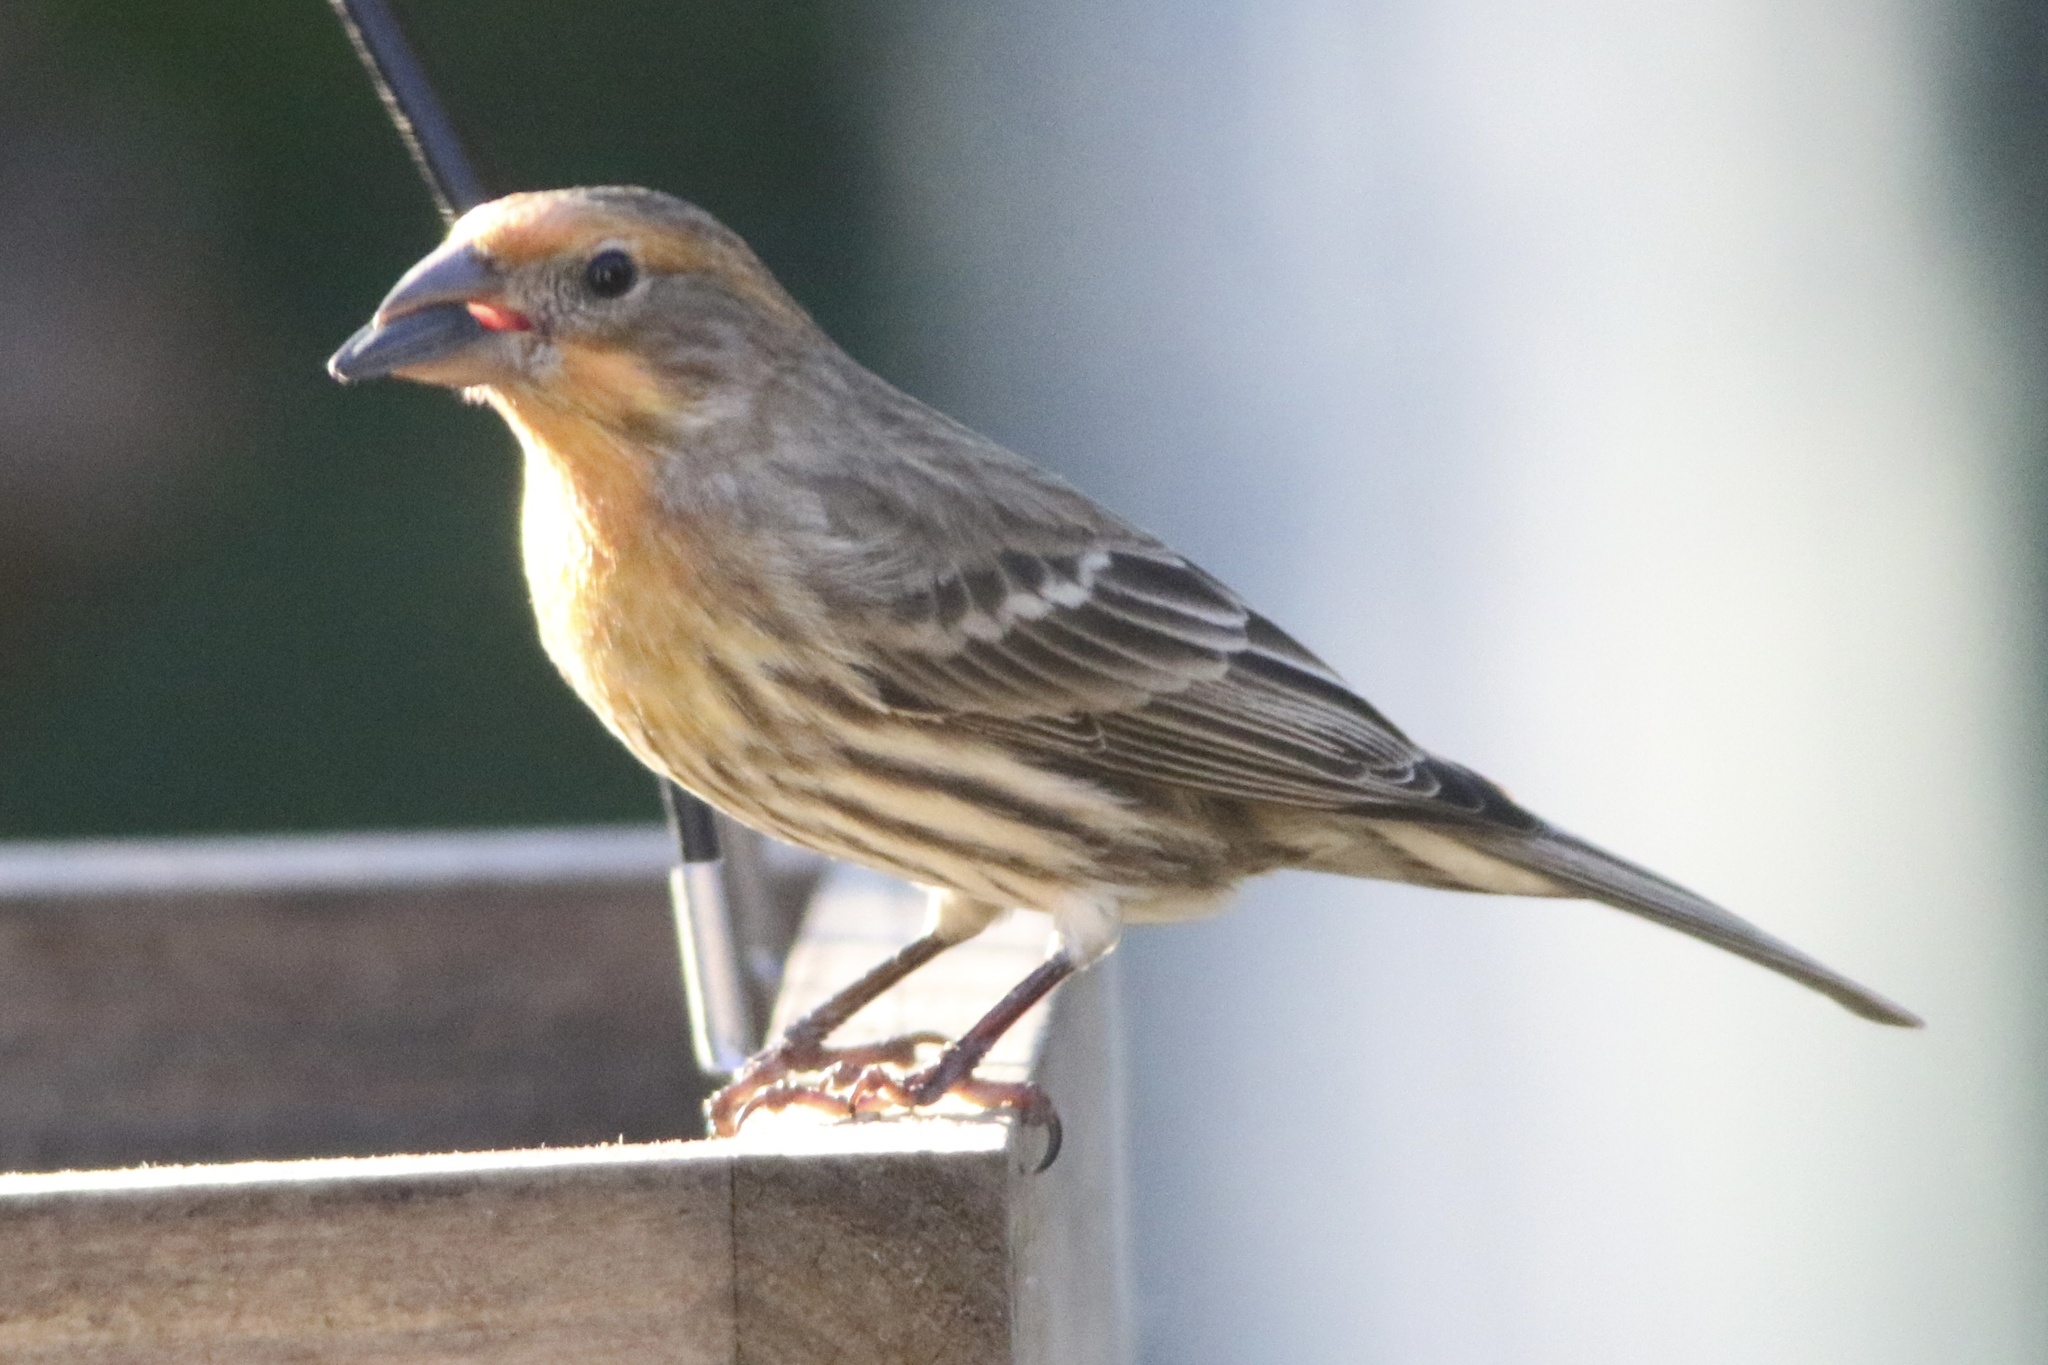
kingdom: Animalia
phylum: Chordata
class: Aves
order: Passeriformes
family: Fringillidae
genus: Haemorhous
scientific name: Haemorhous mexicanus
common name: House finch
